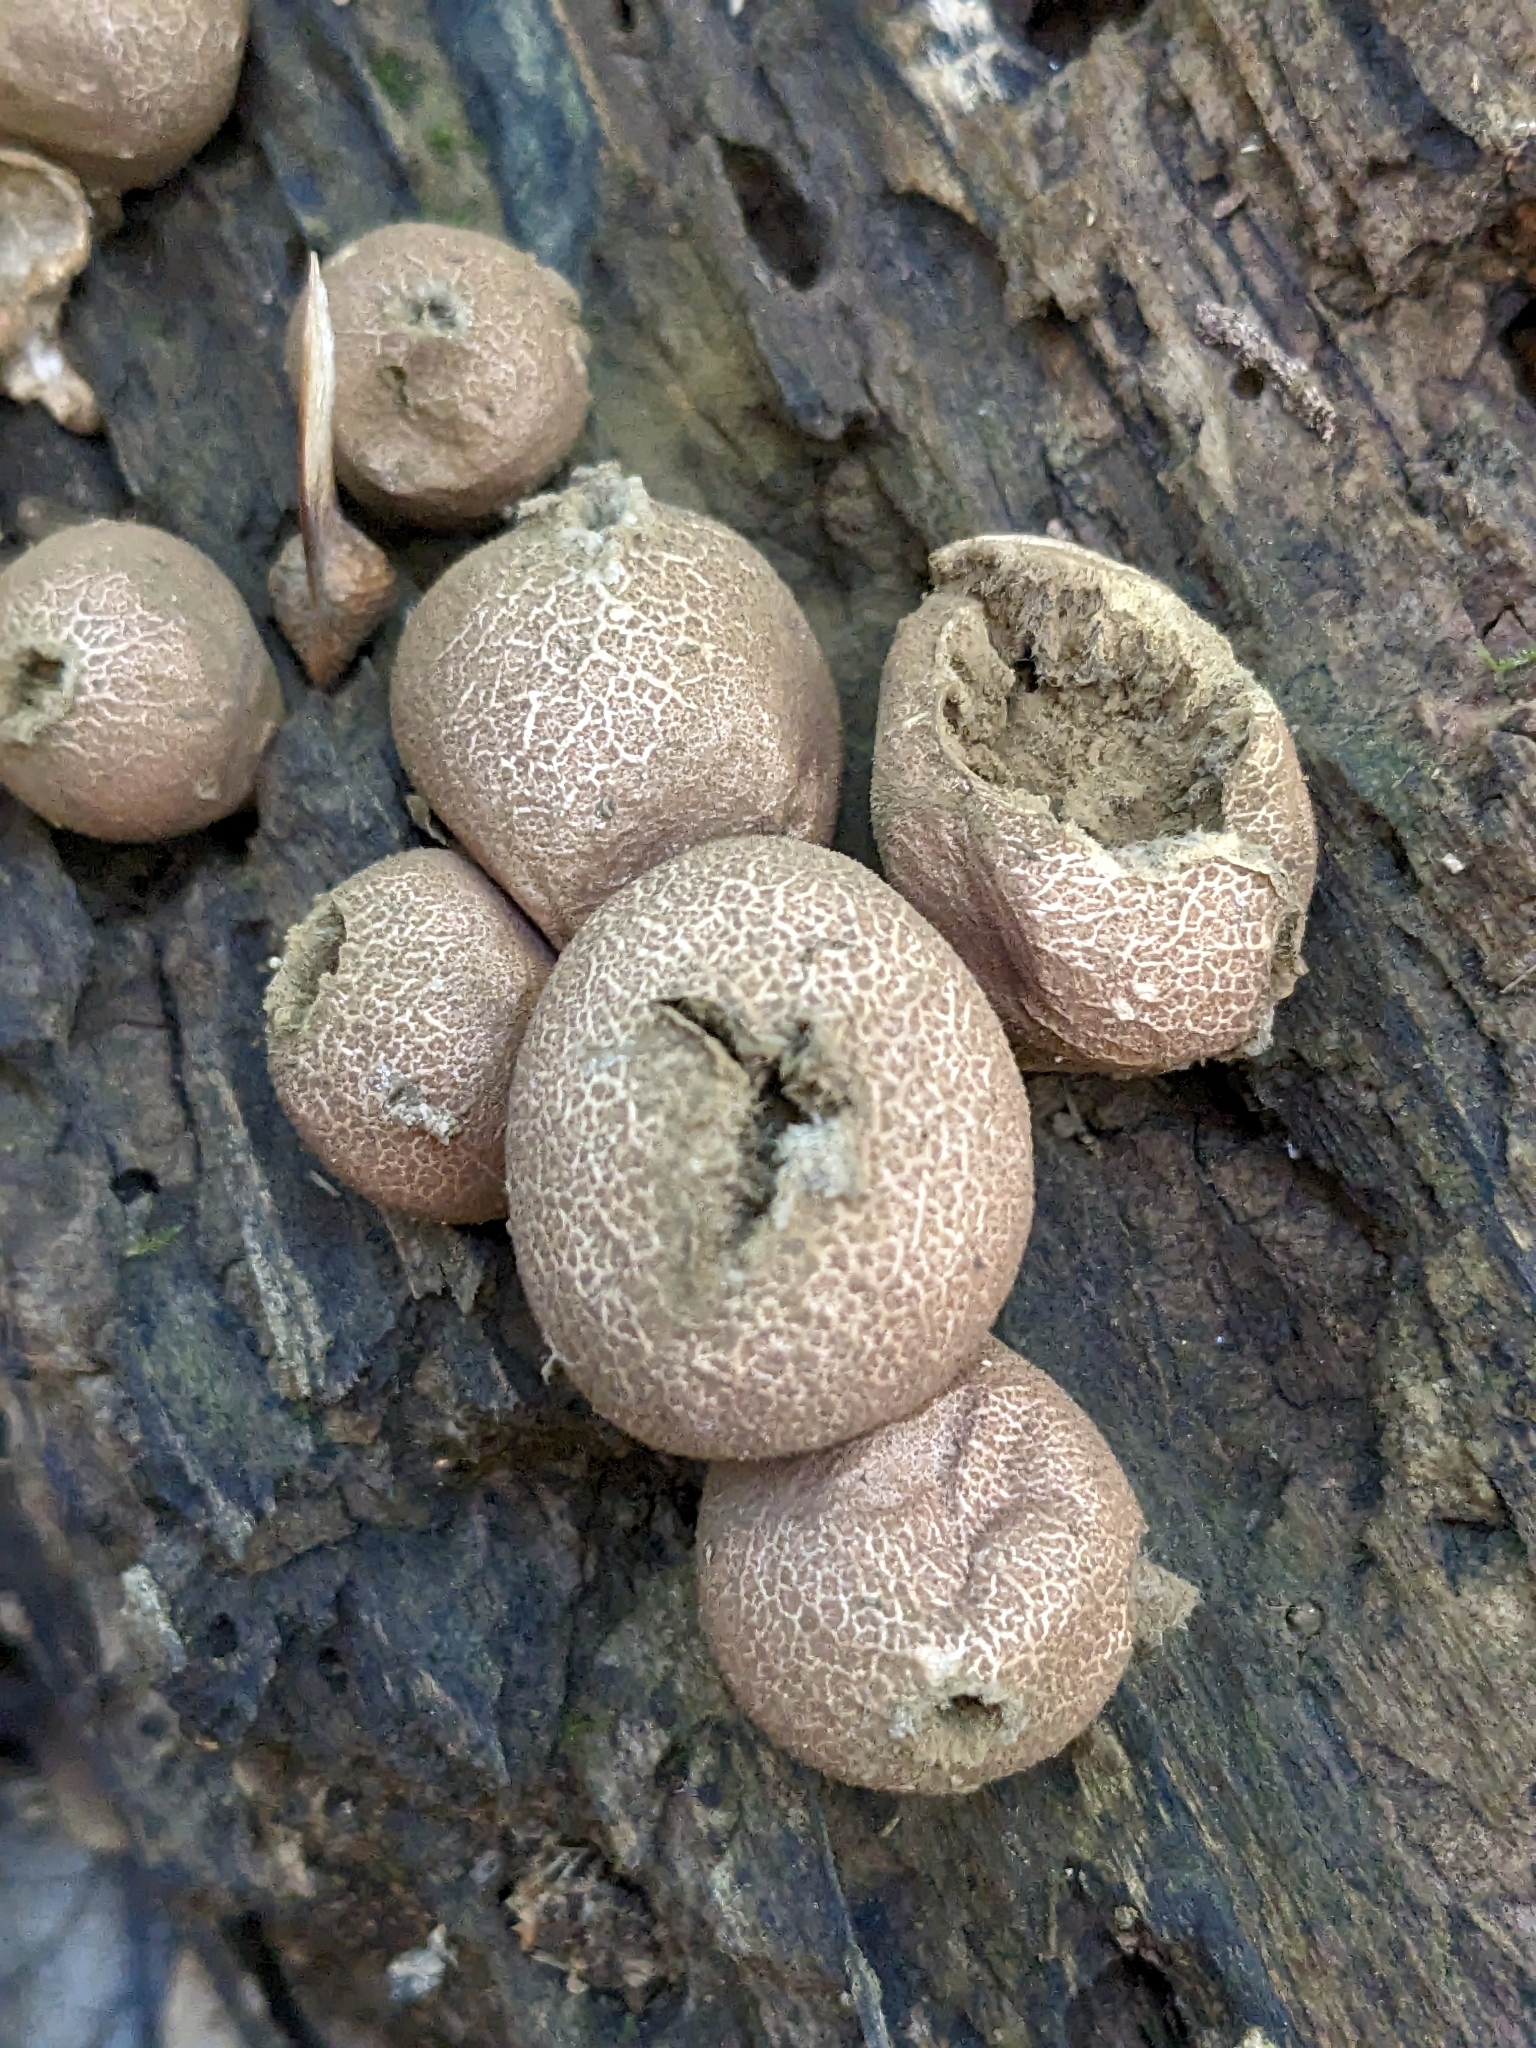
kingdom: Fungi
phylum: Basidiomycota
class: Agaricomycetes
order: Agaricales
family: Lycoperdaceae
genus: Apioperdon
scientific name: Apioperdon pyriforme
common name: Pear-shaped puffball
